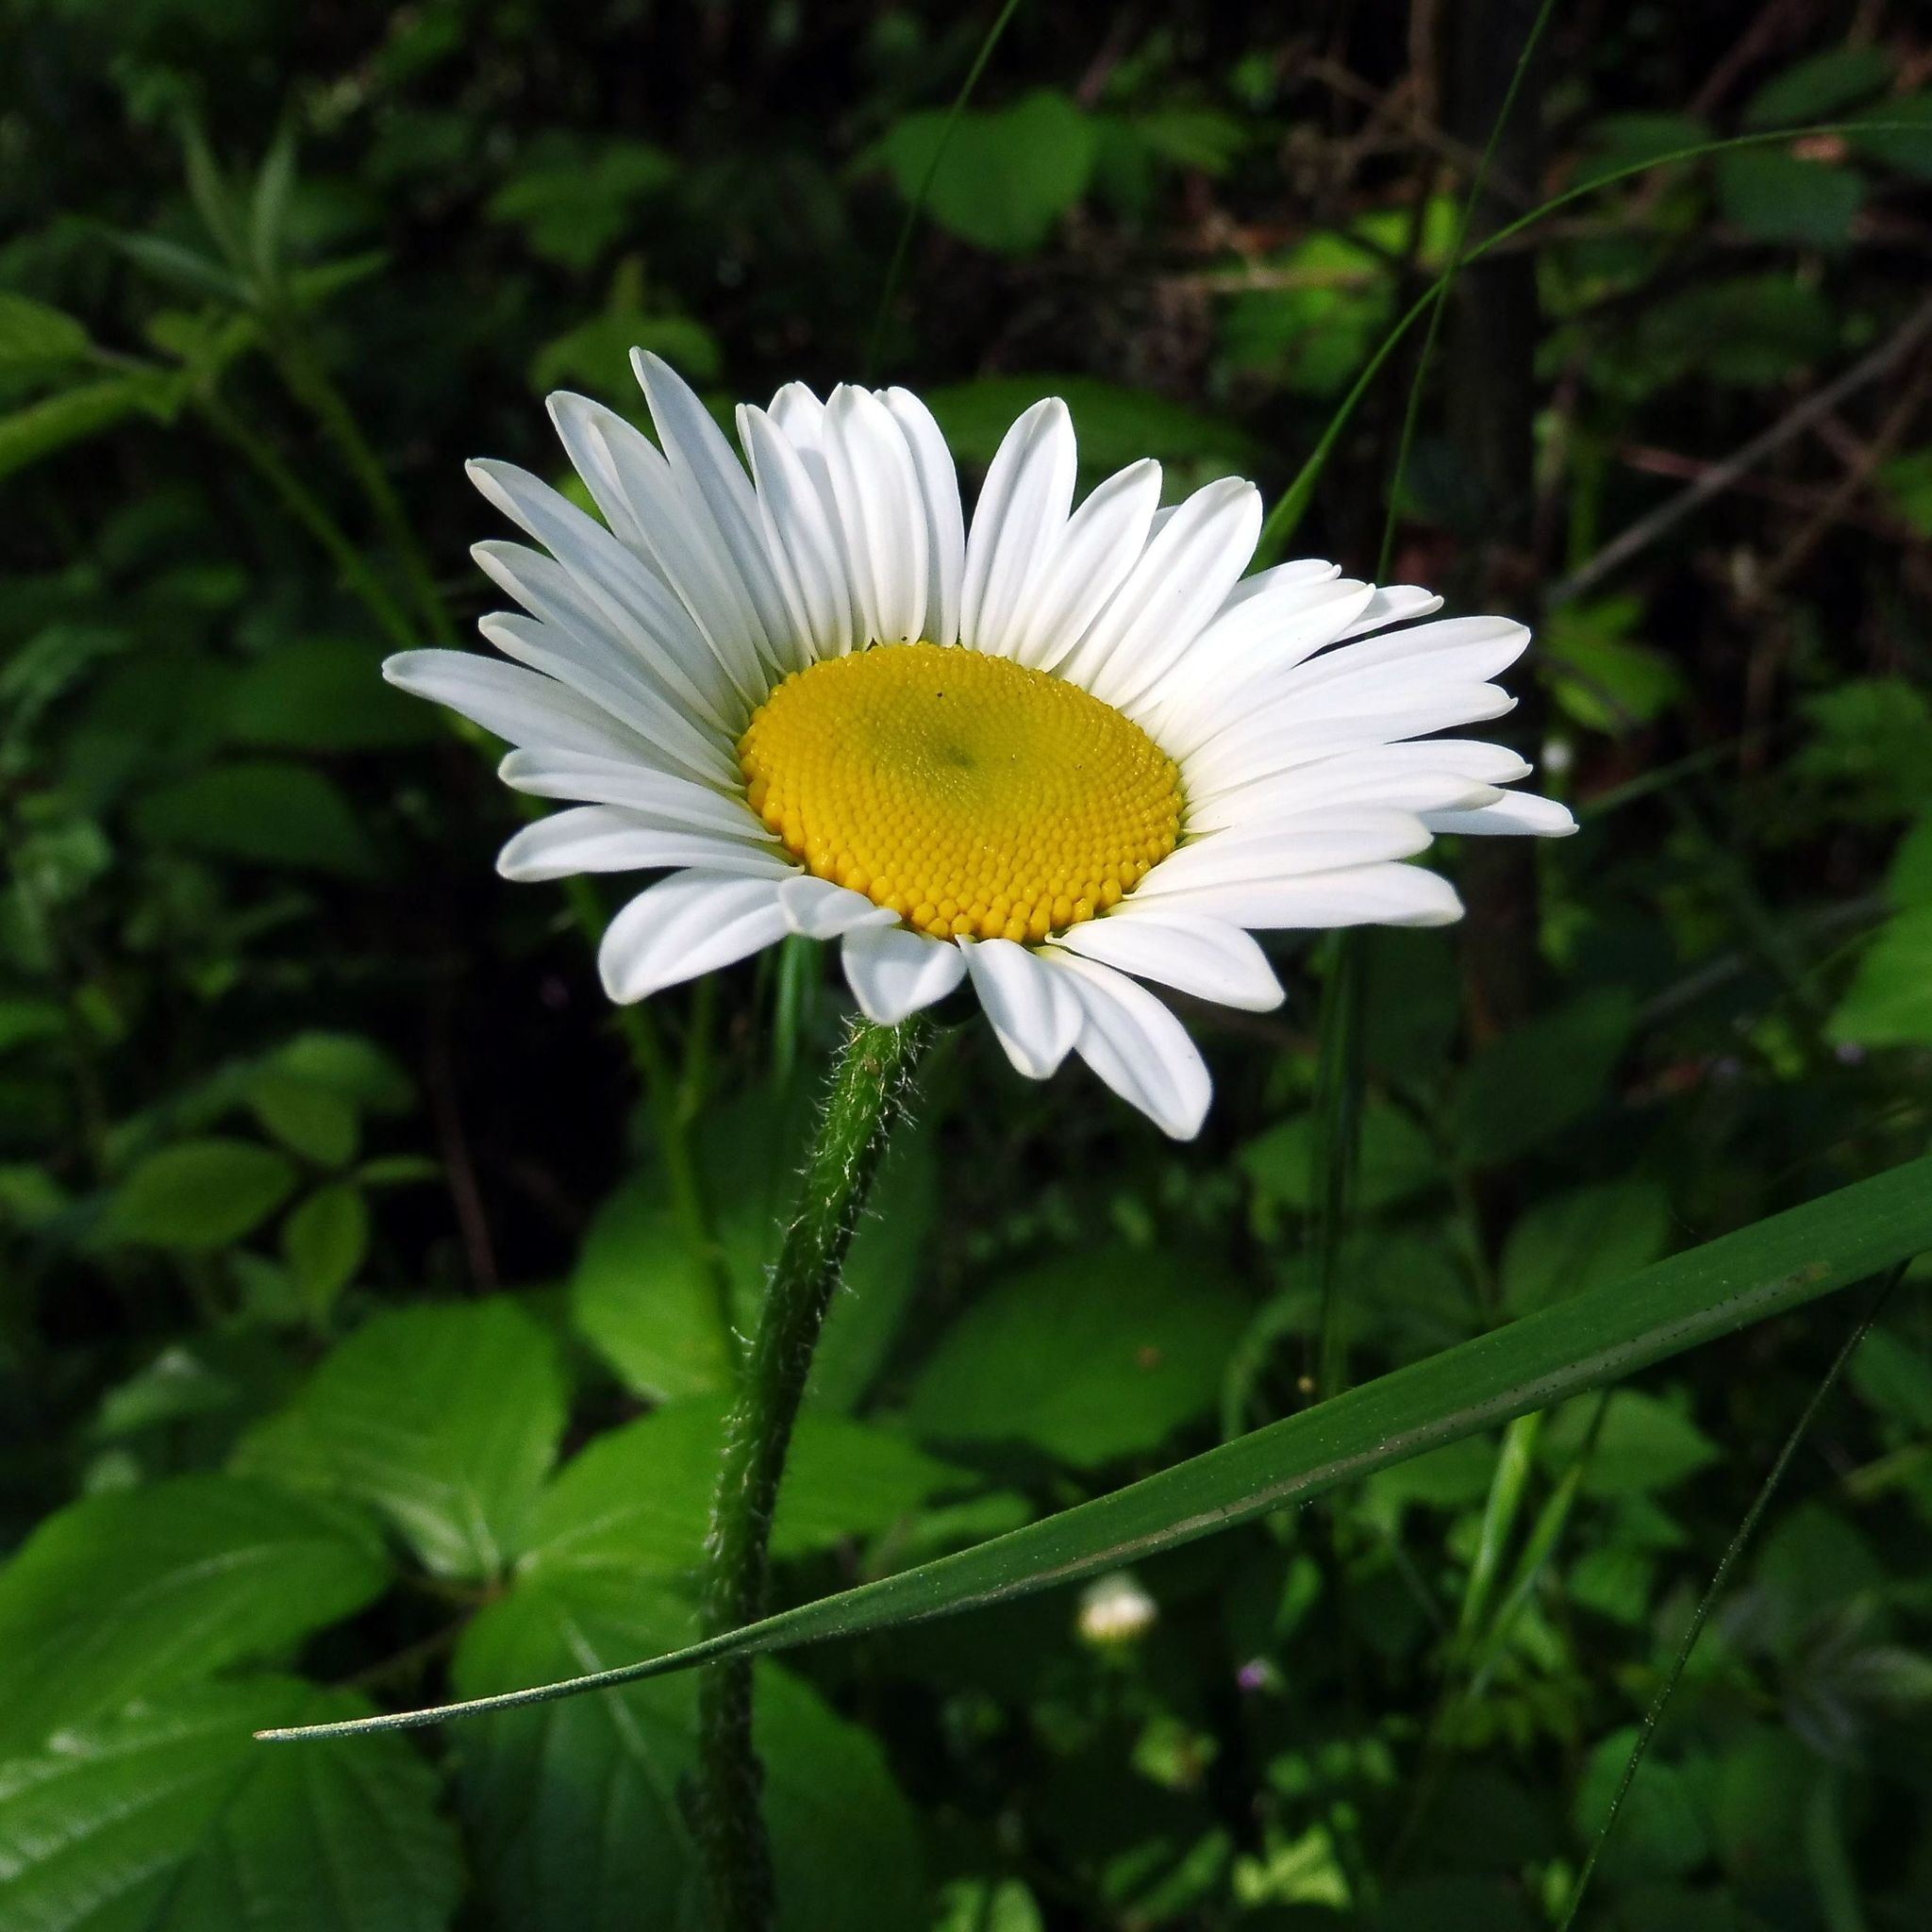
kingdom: Plantae
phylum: Tracheophyta
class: Magnoliopsida
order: Asterales
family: Asteraceae
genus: Leucanthemum
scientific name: Leucanthemum vulgare
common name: Oxeye daisy
